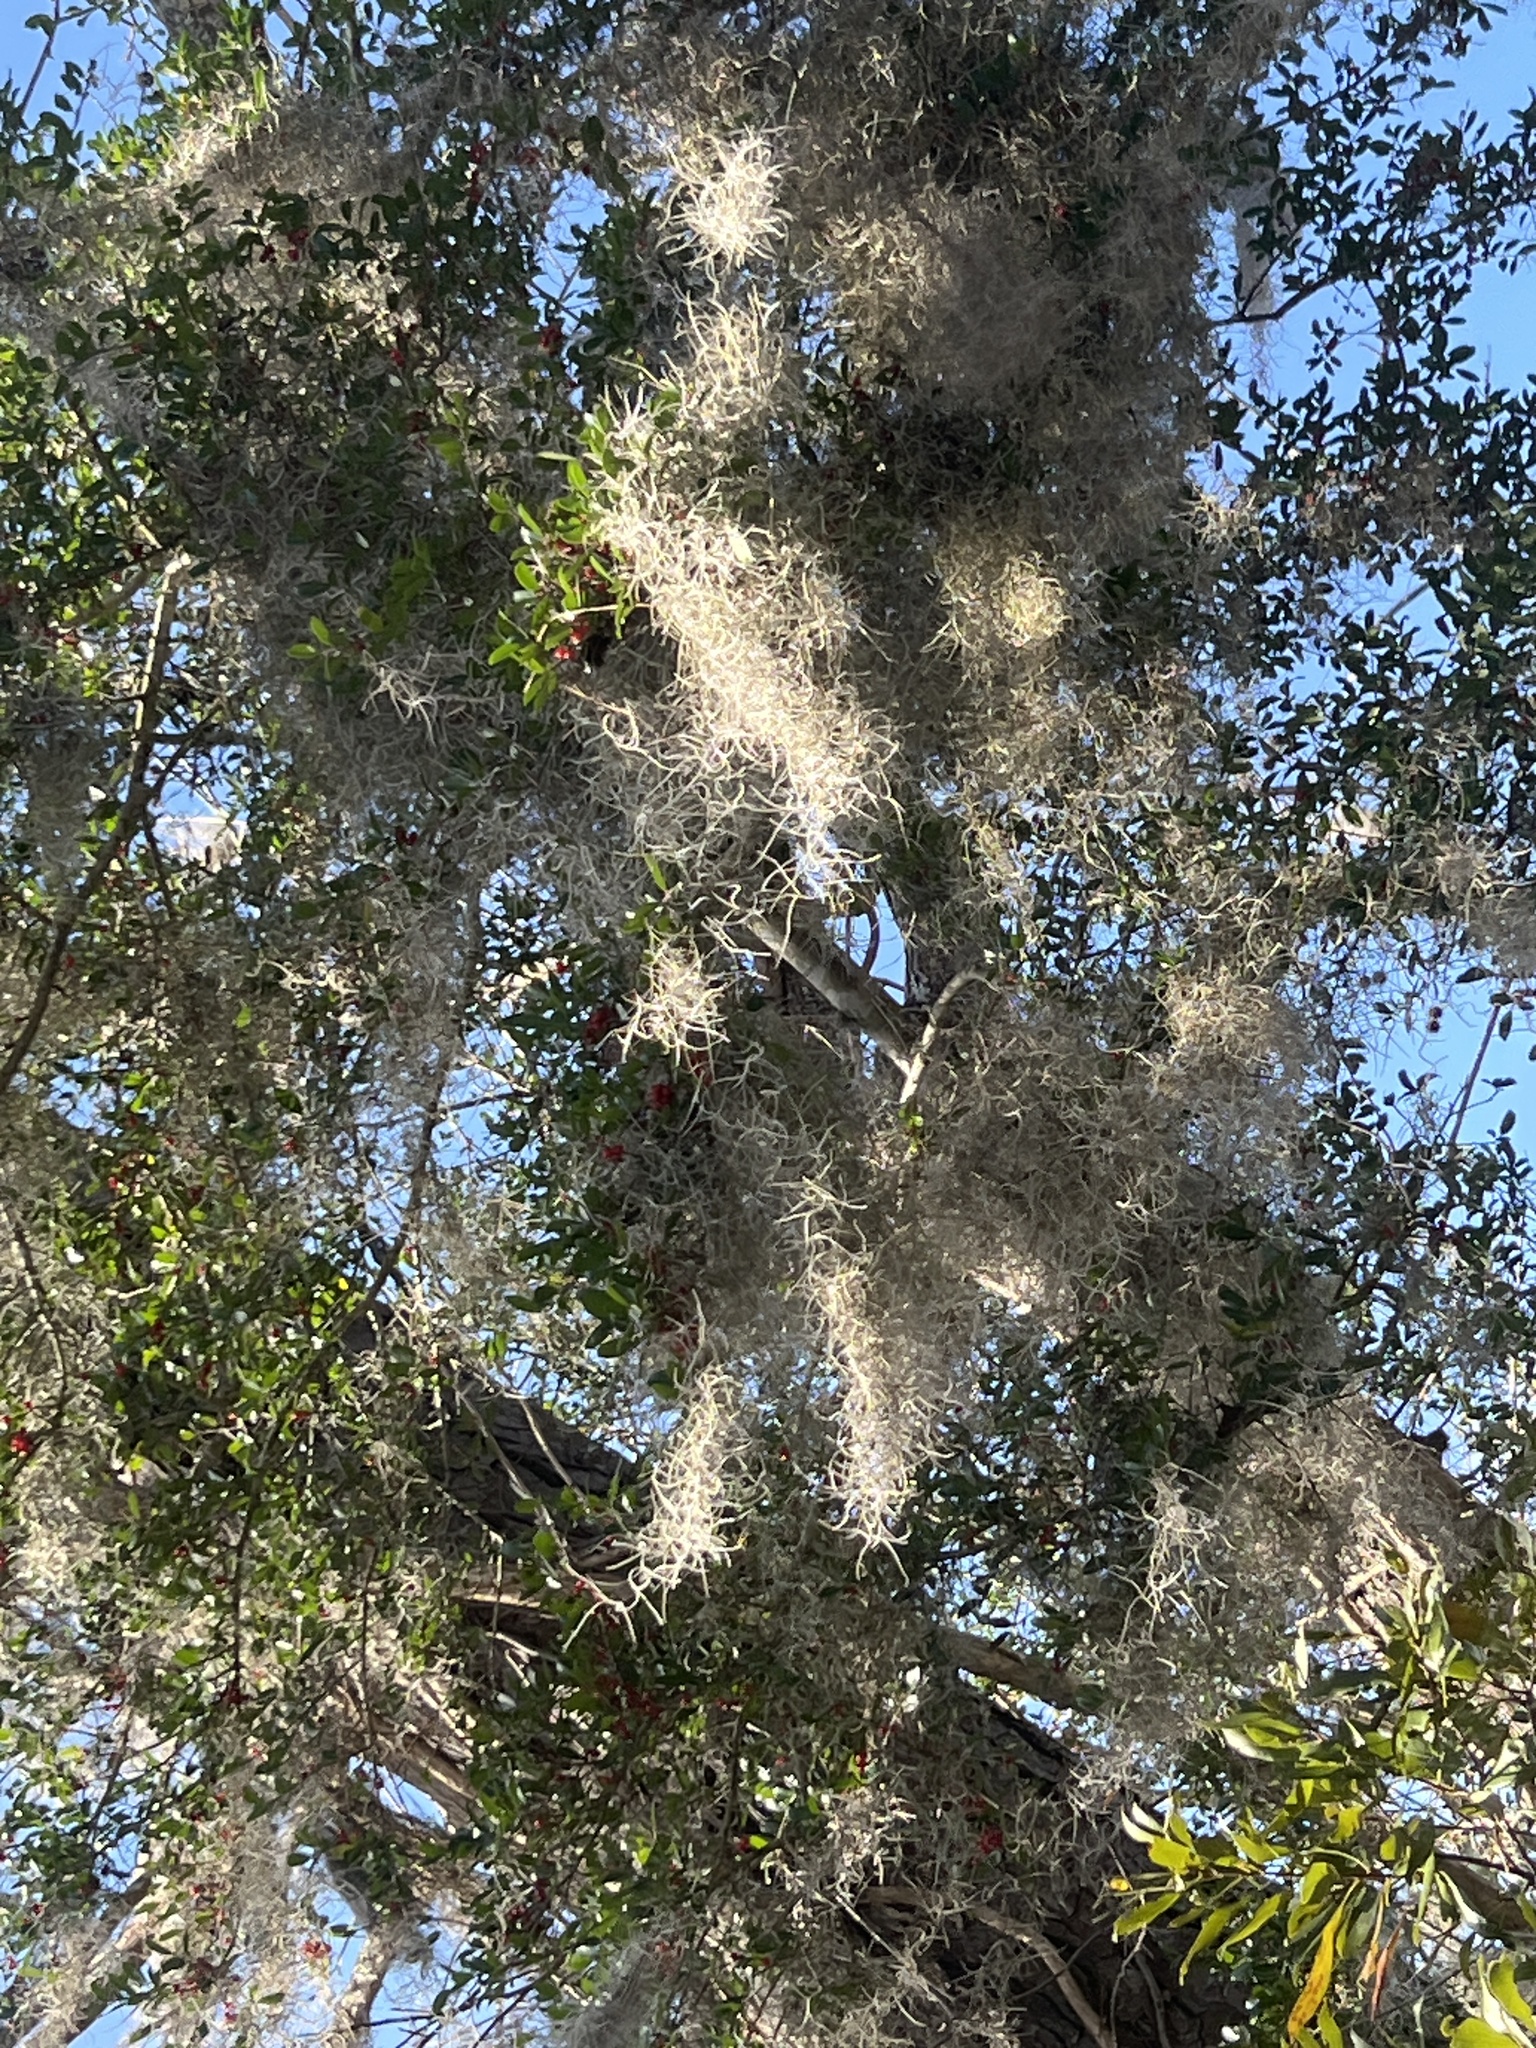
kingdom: Plantae
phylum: Tracheophyta
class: Liliopsida
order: Poales
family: Bromeliaceae
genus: Tillandsia
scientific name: Tillandsia usneoides
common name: Spanish moss
